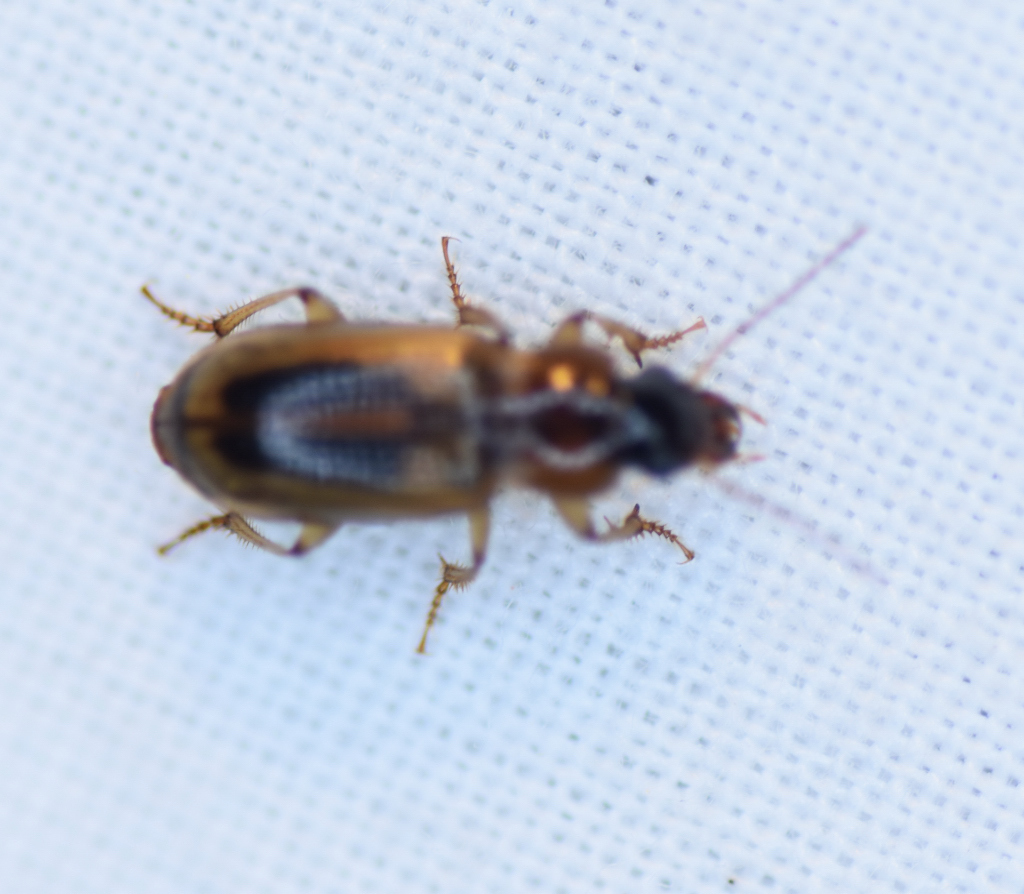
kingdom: Animalia
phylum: Arthropoda
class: Insecta
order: Coleoptera
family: Carabidae
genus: Stenolophus
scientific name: Stenolophus comma
